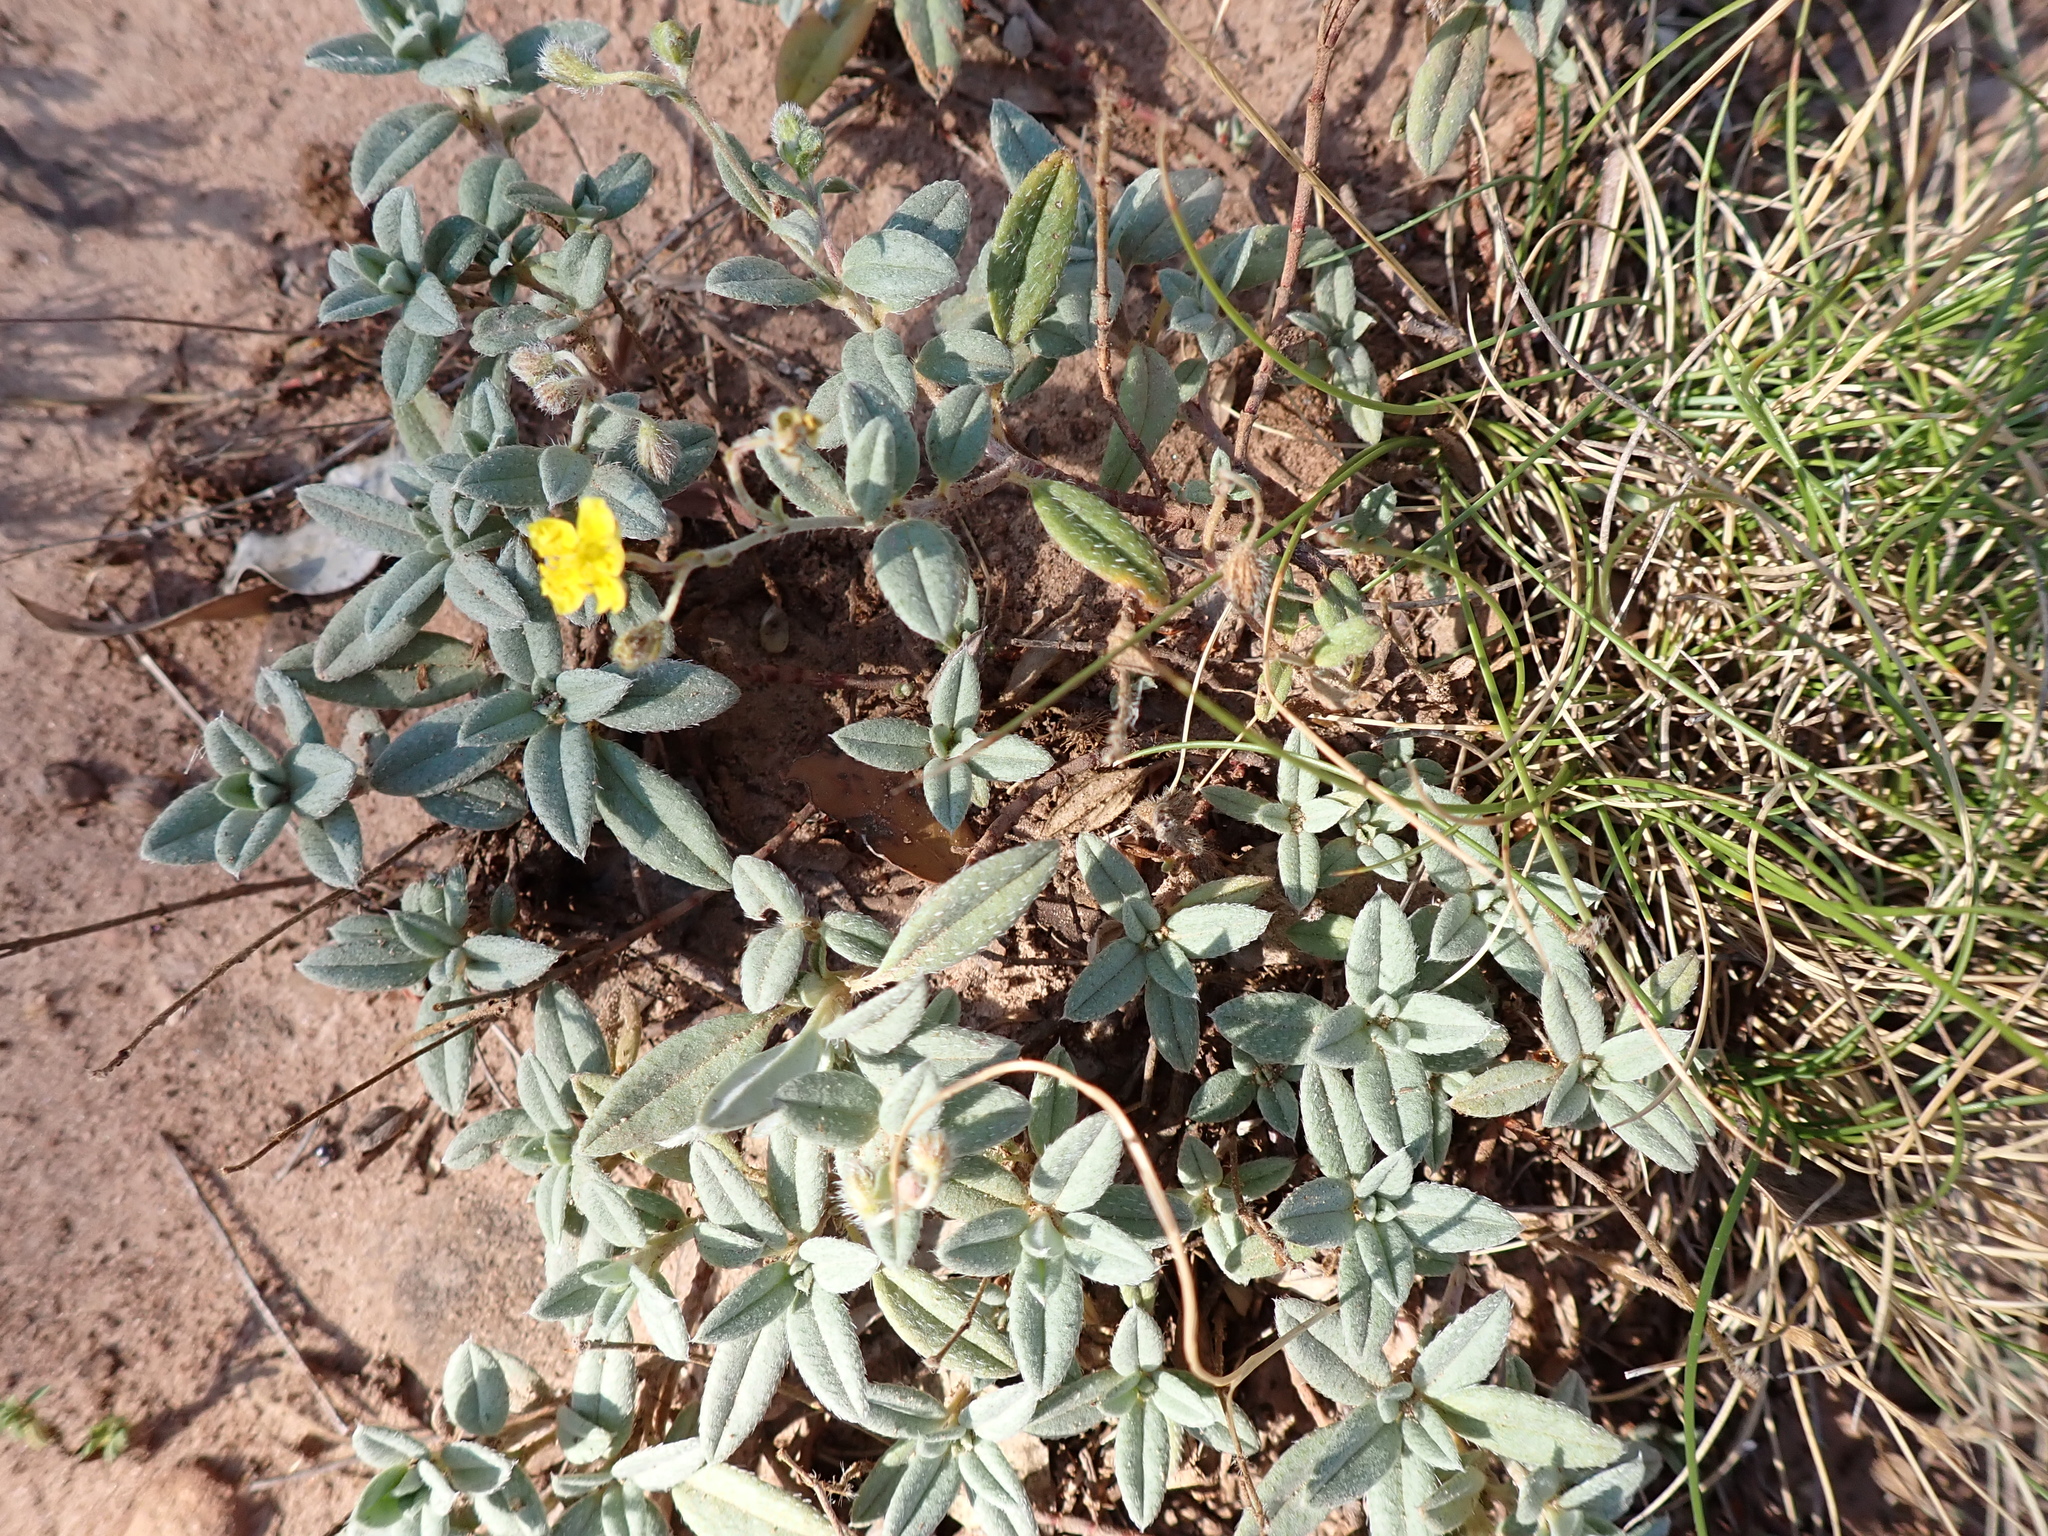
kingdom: Plantae
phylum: Tracheophyta
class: Magnoliopsida
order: Malvales
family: Cistaceae
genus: Helianthemum
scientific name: Helianthemum canum
